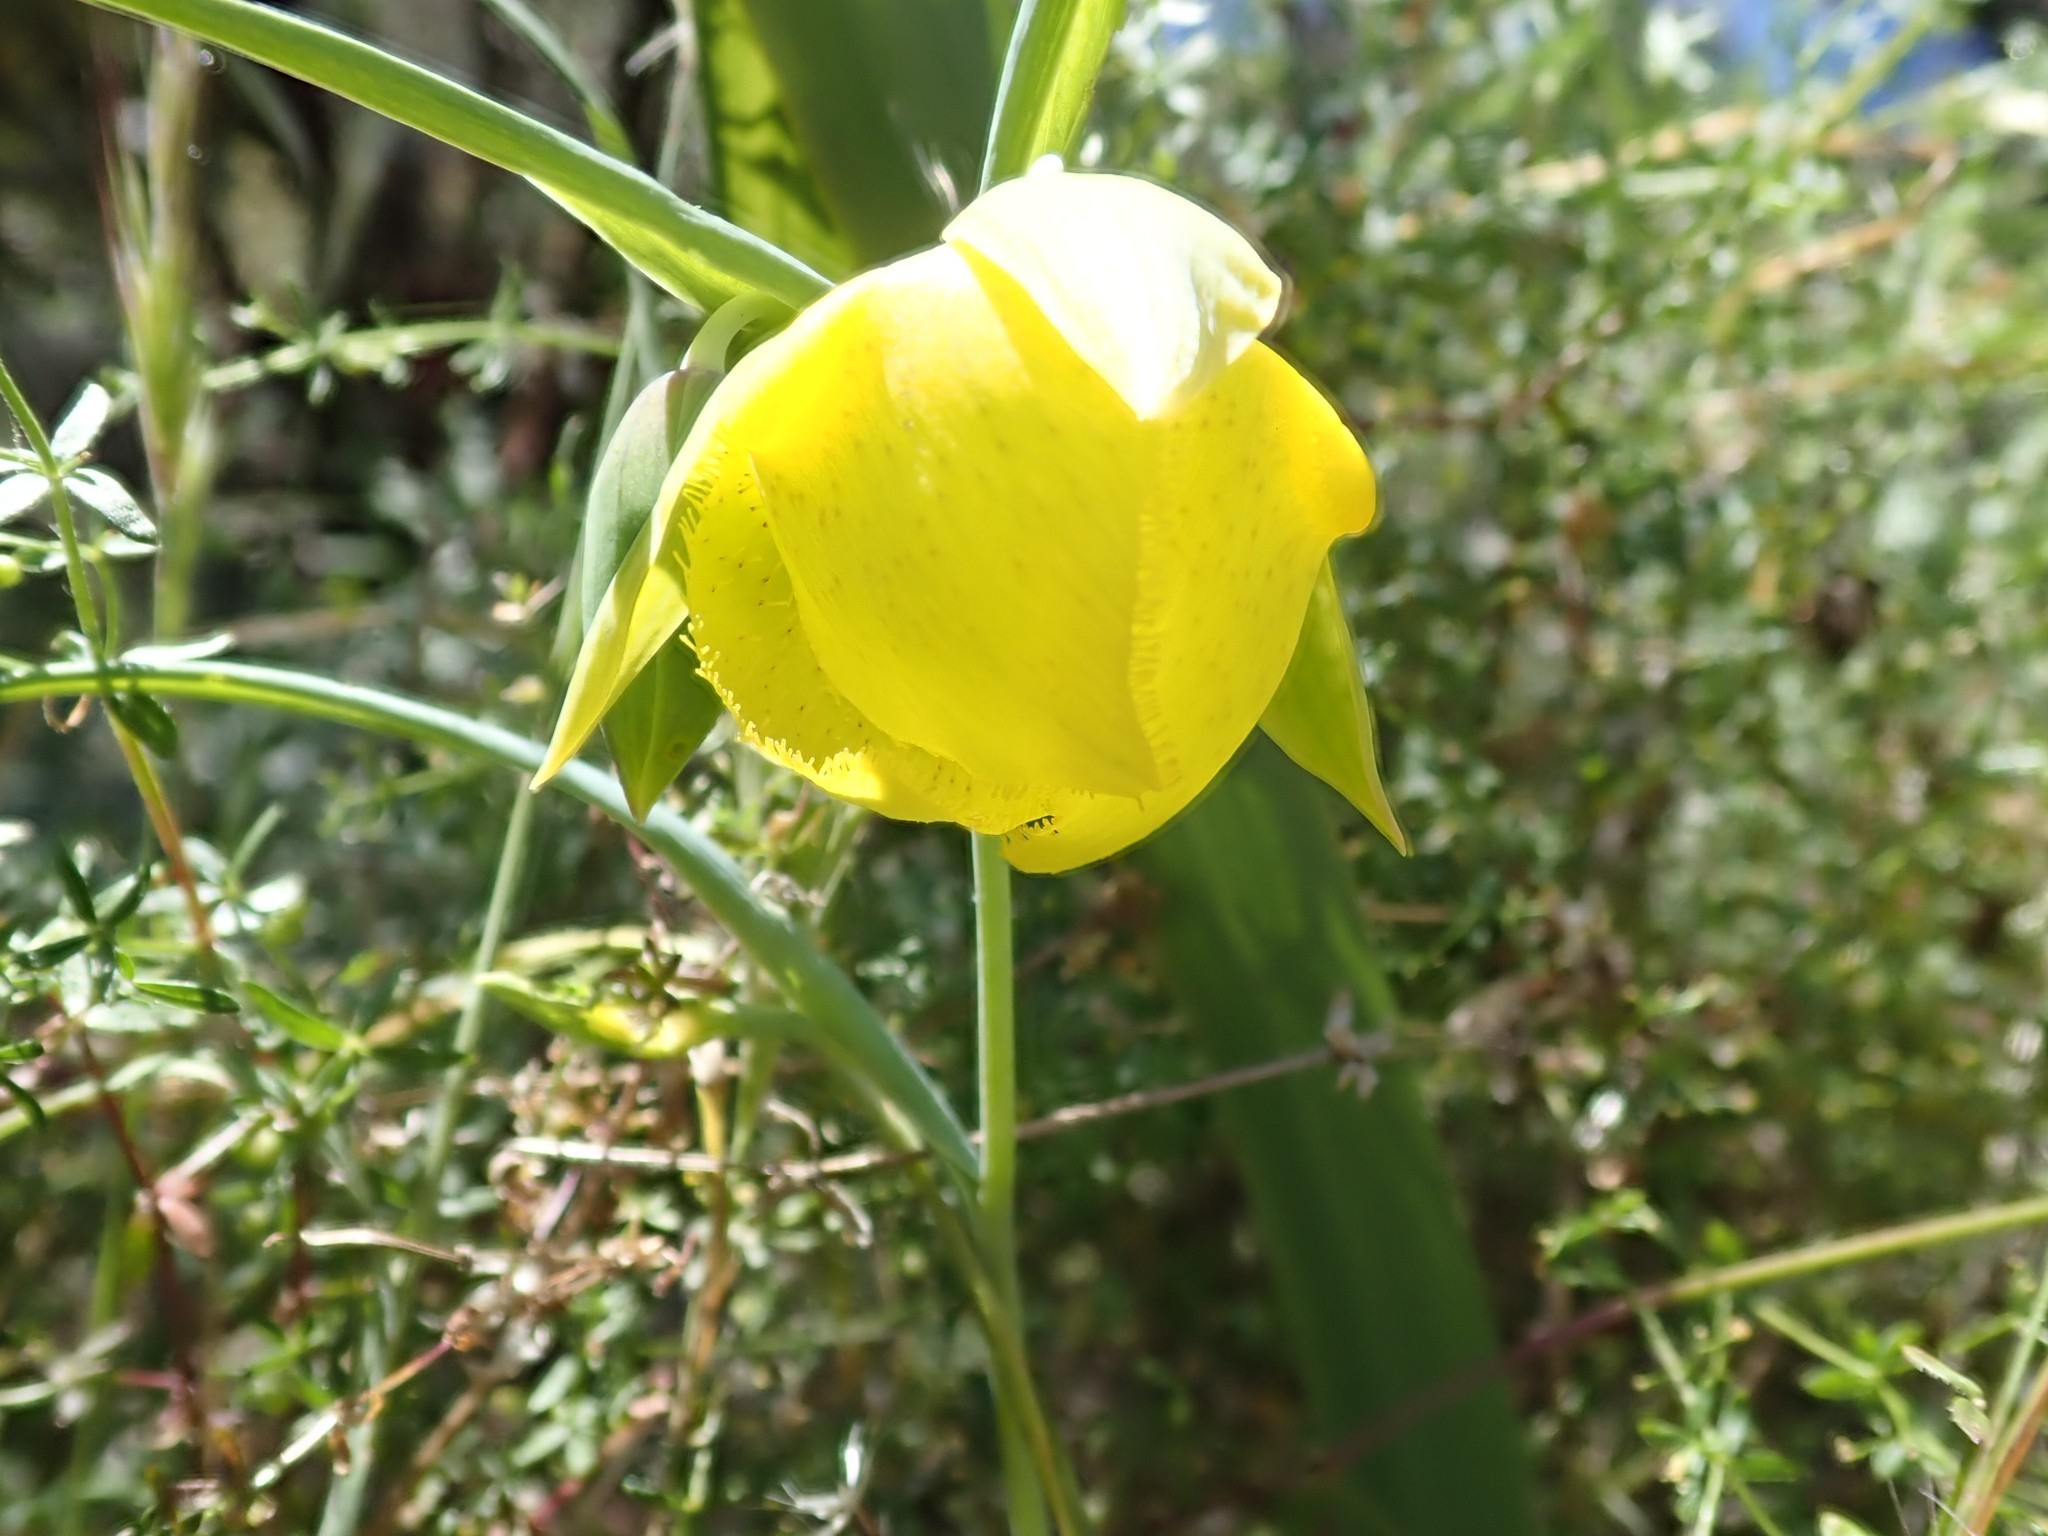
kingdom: Plantae
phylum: Tracheophyta
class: Liliopsida
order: Liliales
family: Liliaceae
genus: Calochortus
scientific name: Calochortus pulchellus
